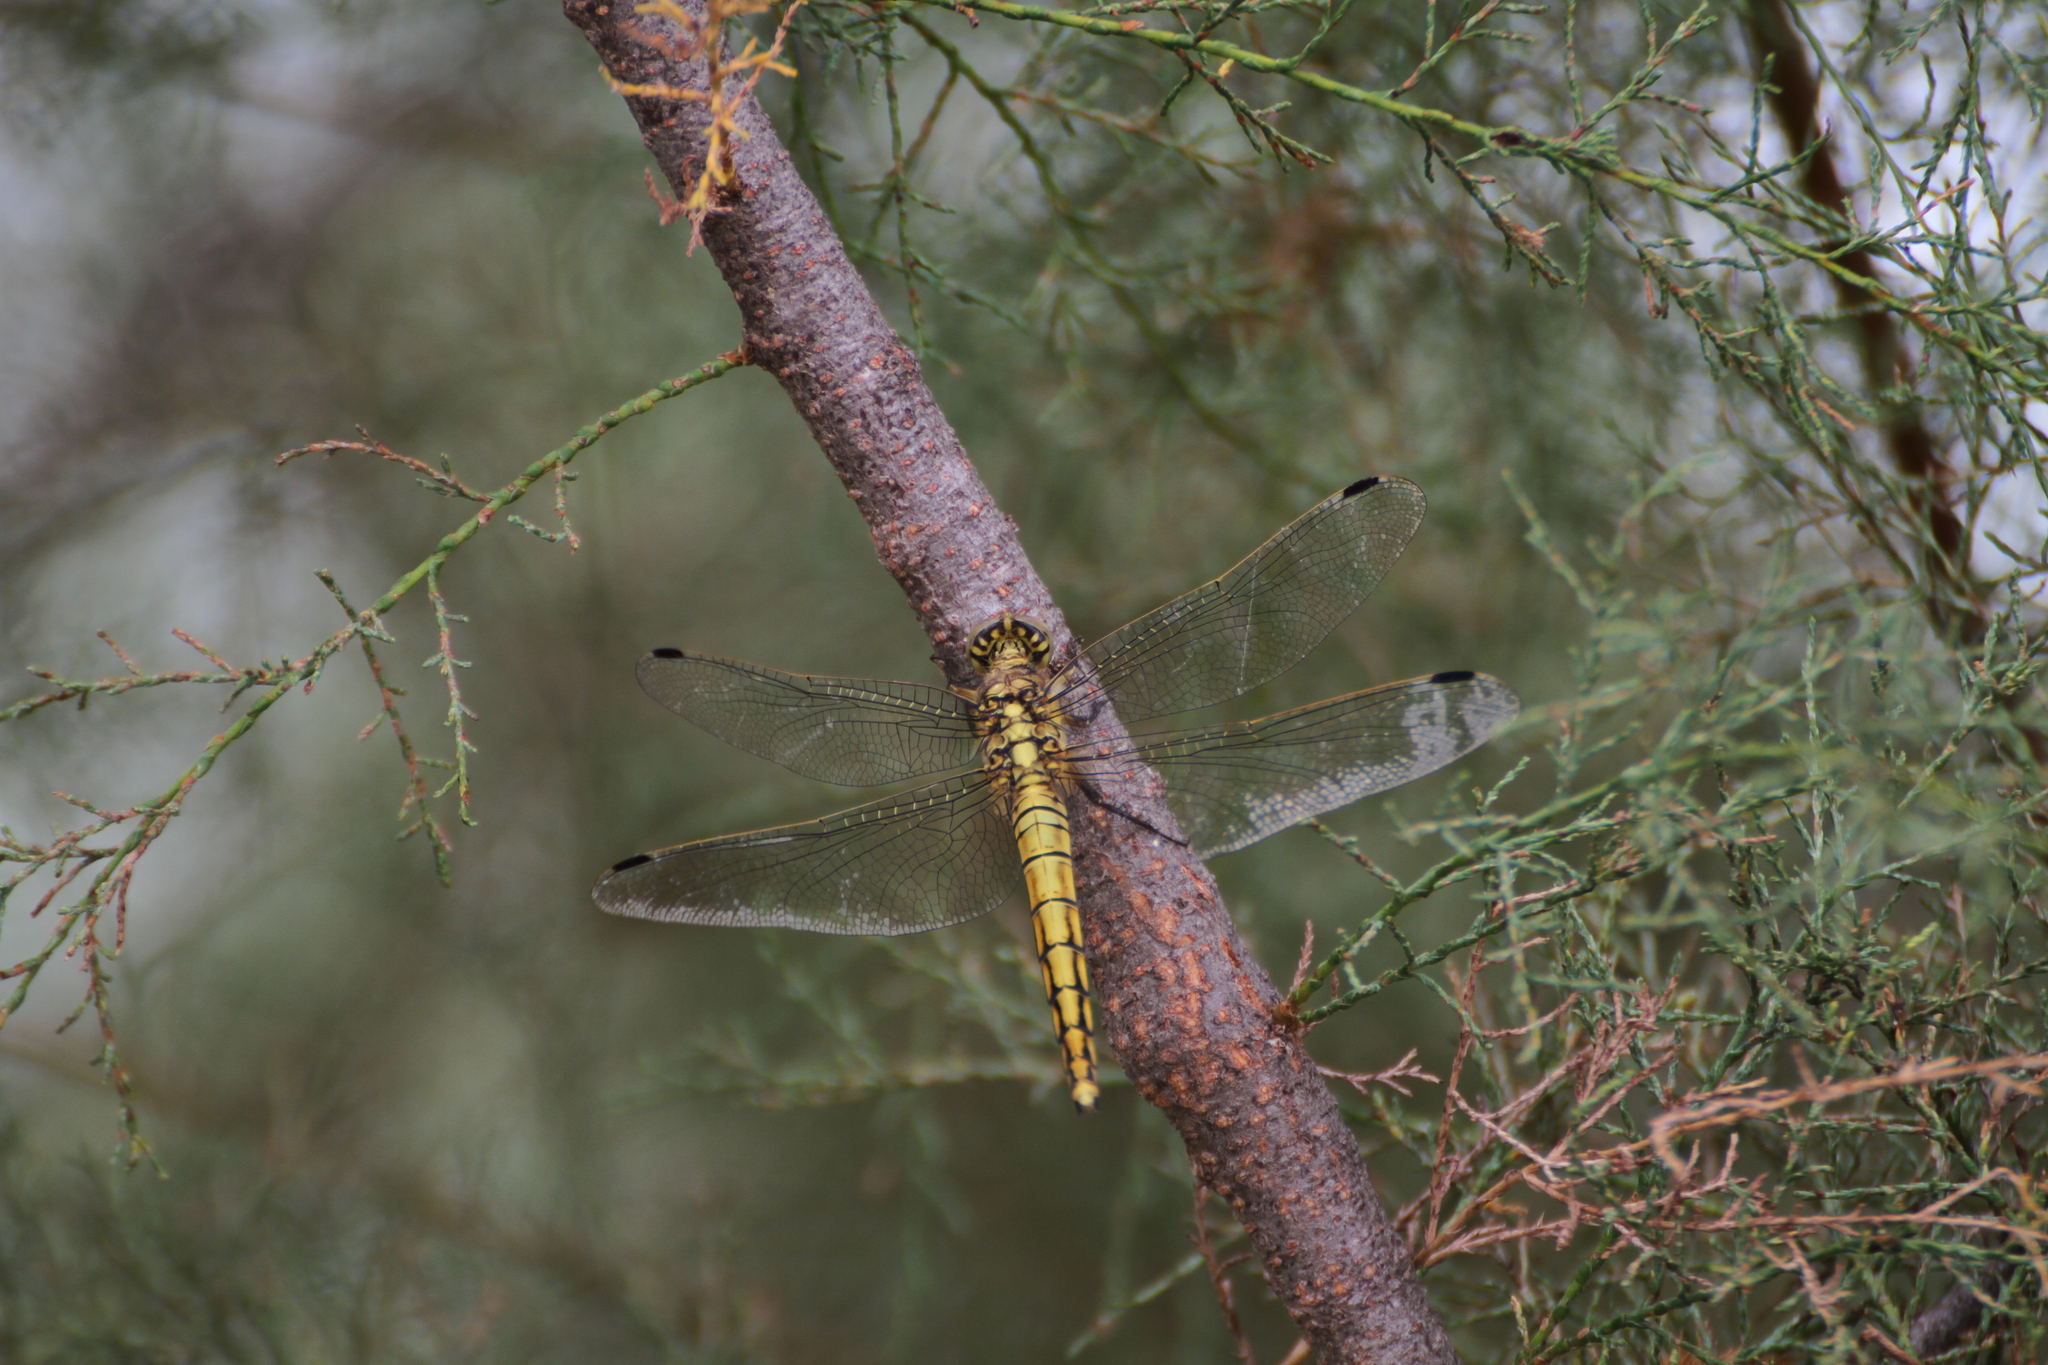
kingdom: Animalia
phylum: Arthropoda
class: Insecta
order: Odonata
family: Libellulidae
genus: Orthetrum
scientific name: Orthetrum cancellatum
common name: Black-tailed skimmer
